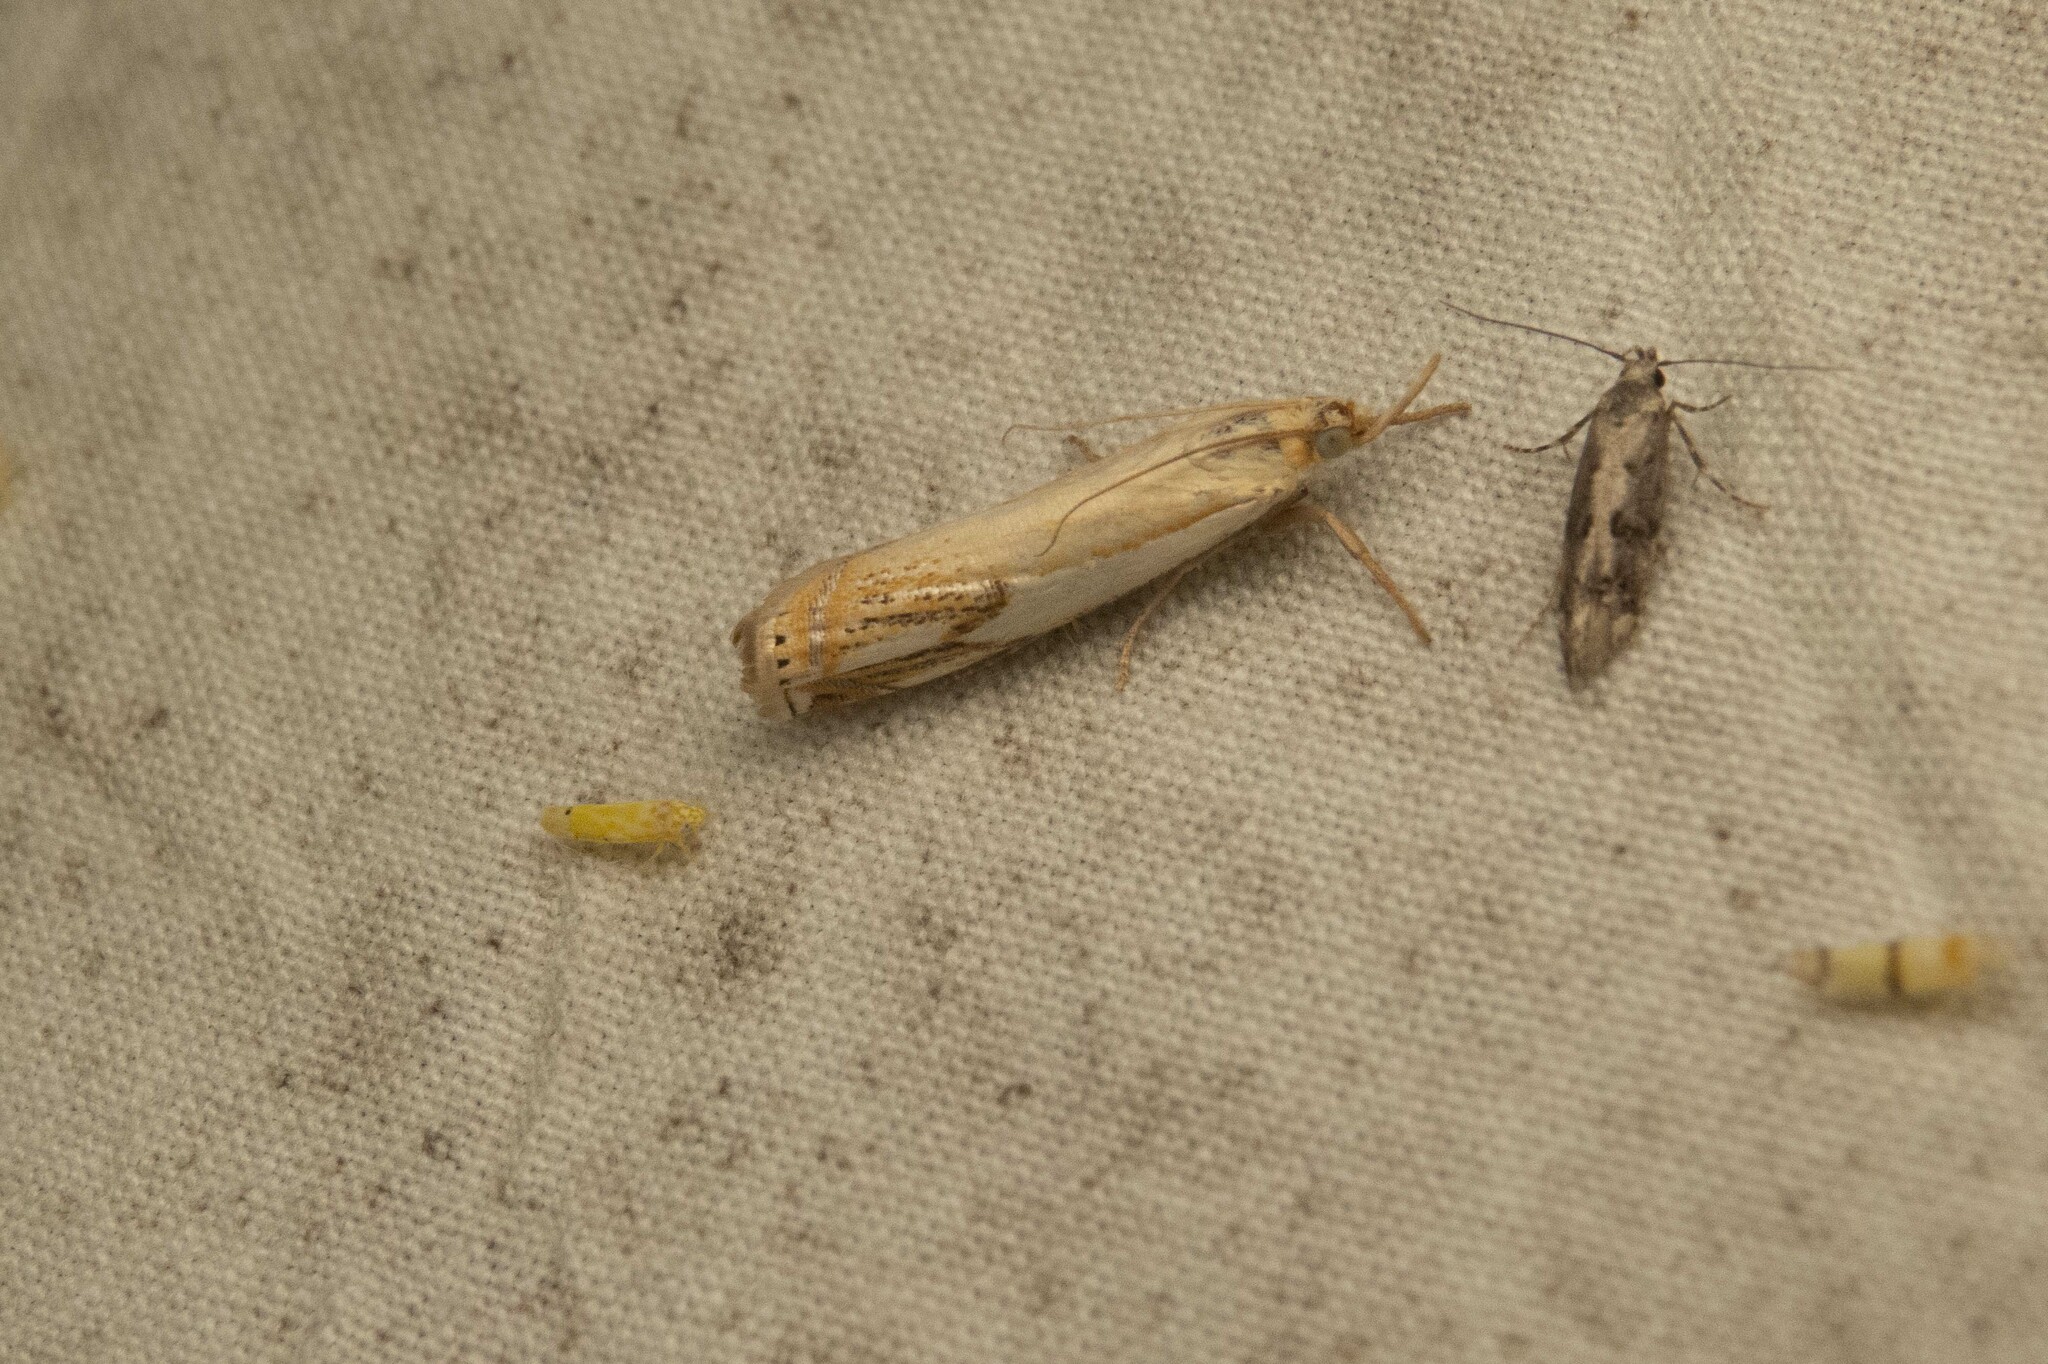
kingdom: Animalia
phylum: Arthropoda
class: Insecta
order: Lepidoptera
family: Crambidae
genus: Crambus
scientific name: Crambus agitatellus
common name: Double-banded grass-veneer
